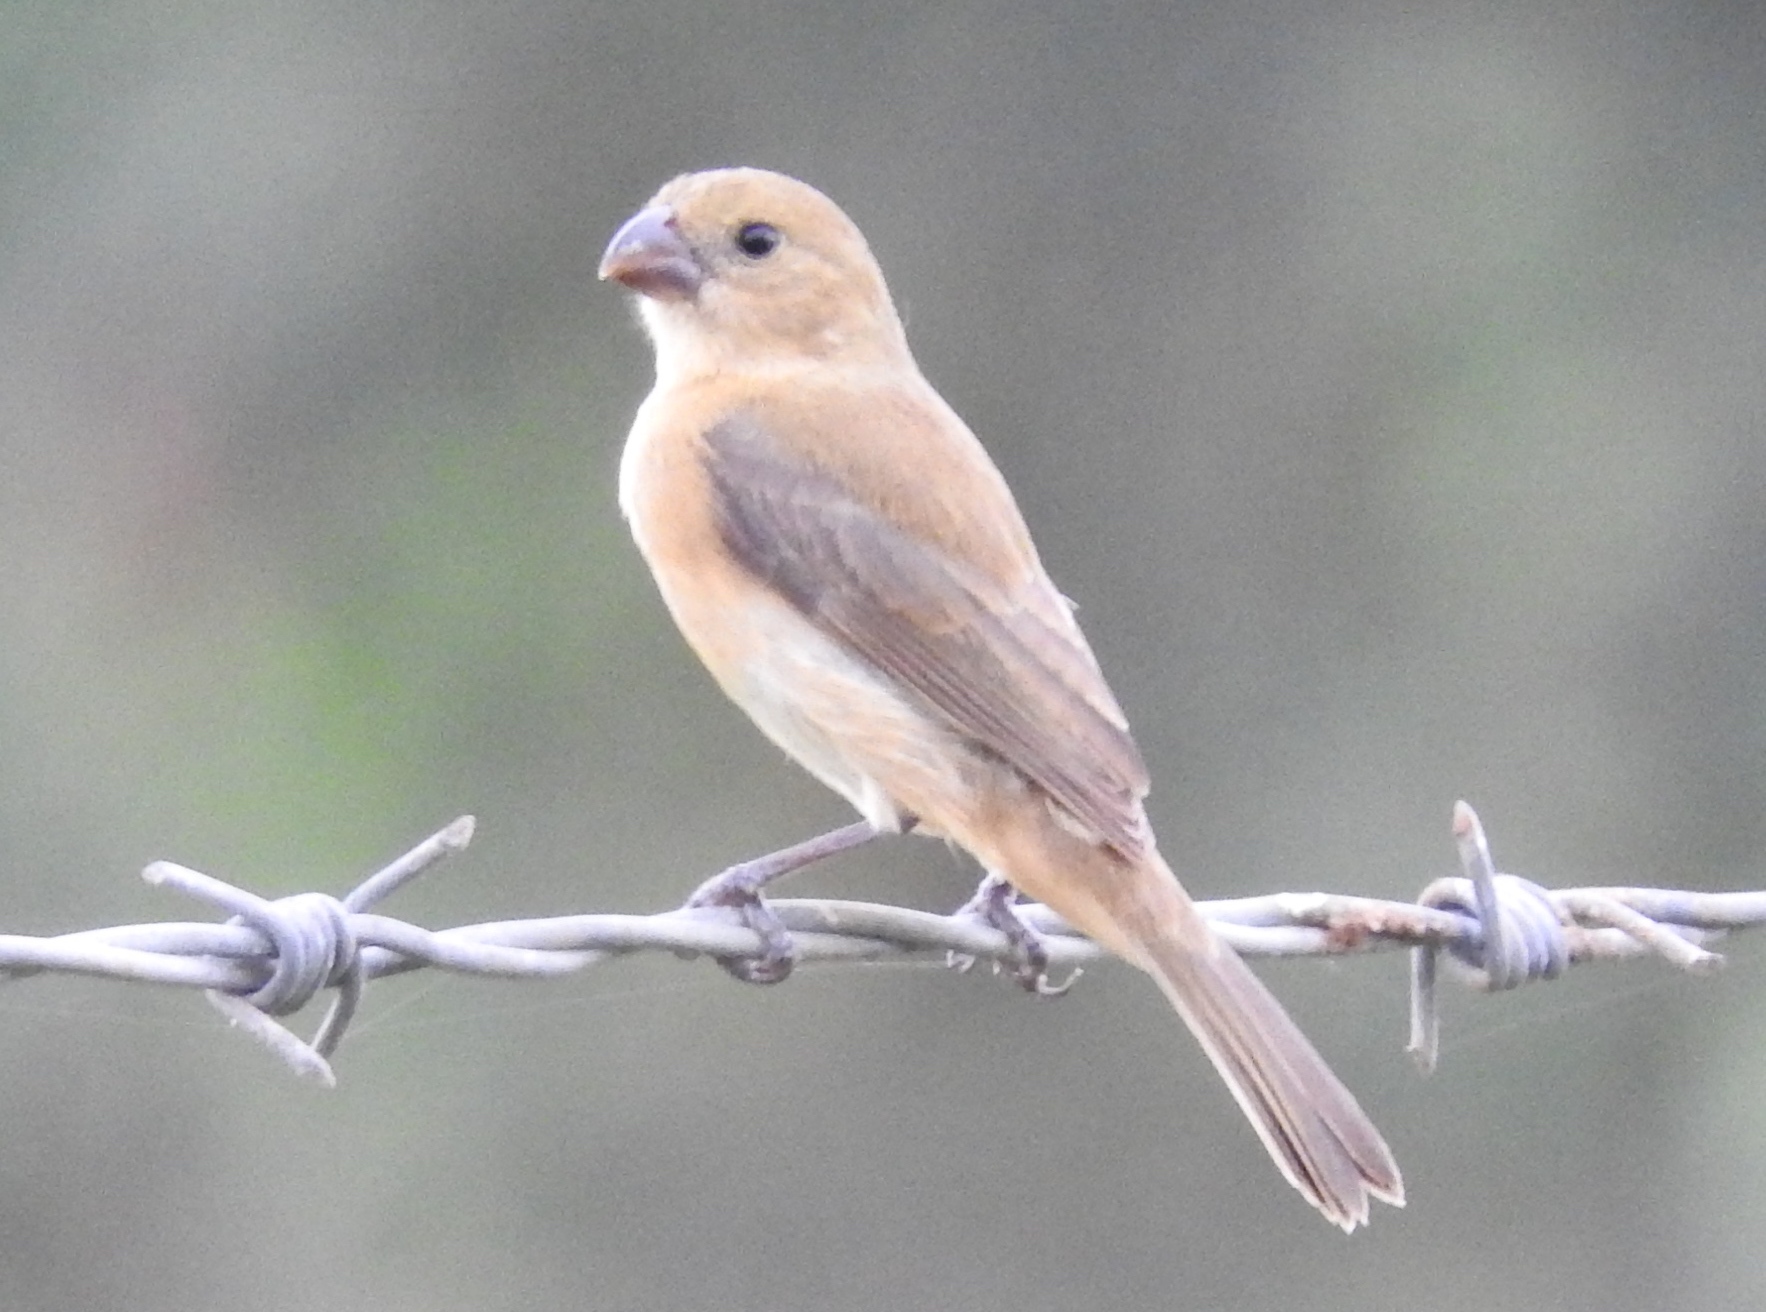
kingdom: Animalia
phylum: Chordata
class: Aves
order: Passeriformes
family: Thraupidae
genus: Sporophila
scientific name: Sporophila torqueola
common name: White-collared seedeater
